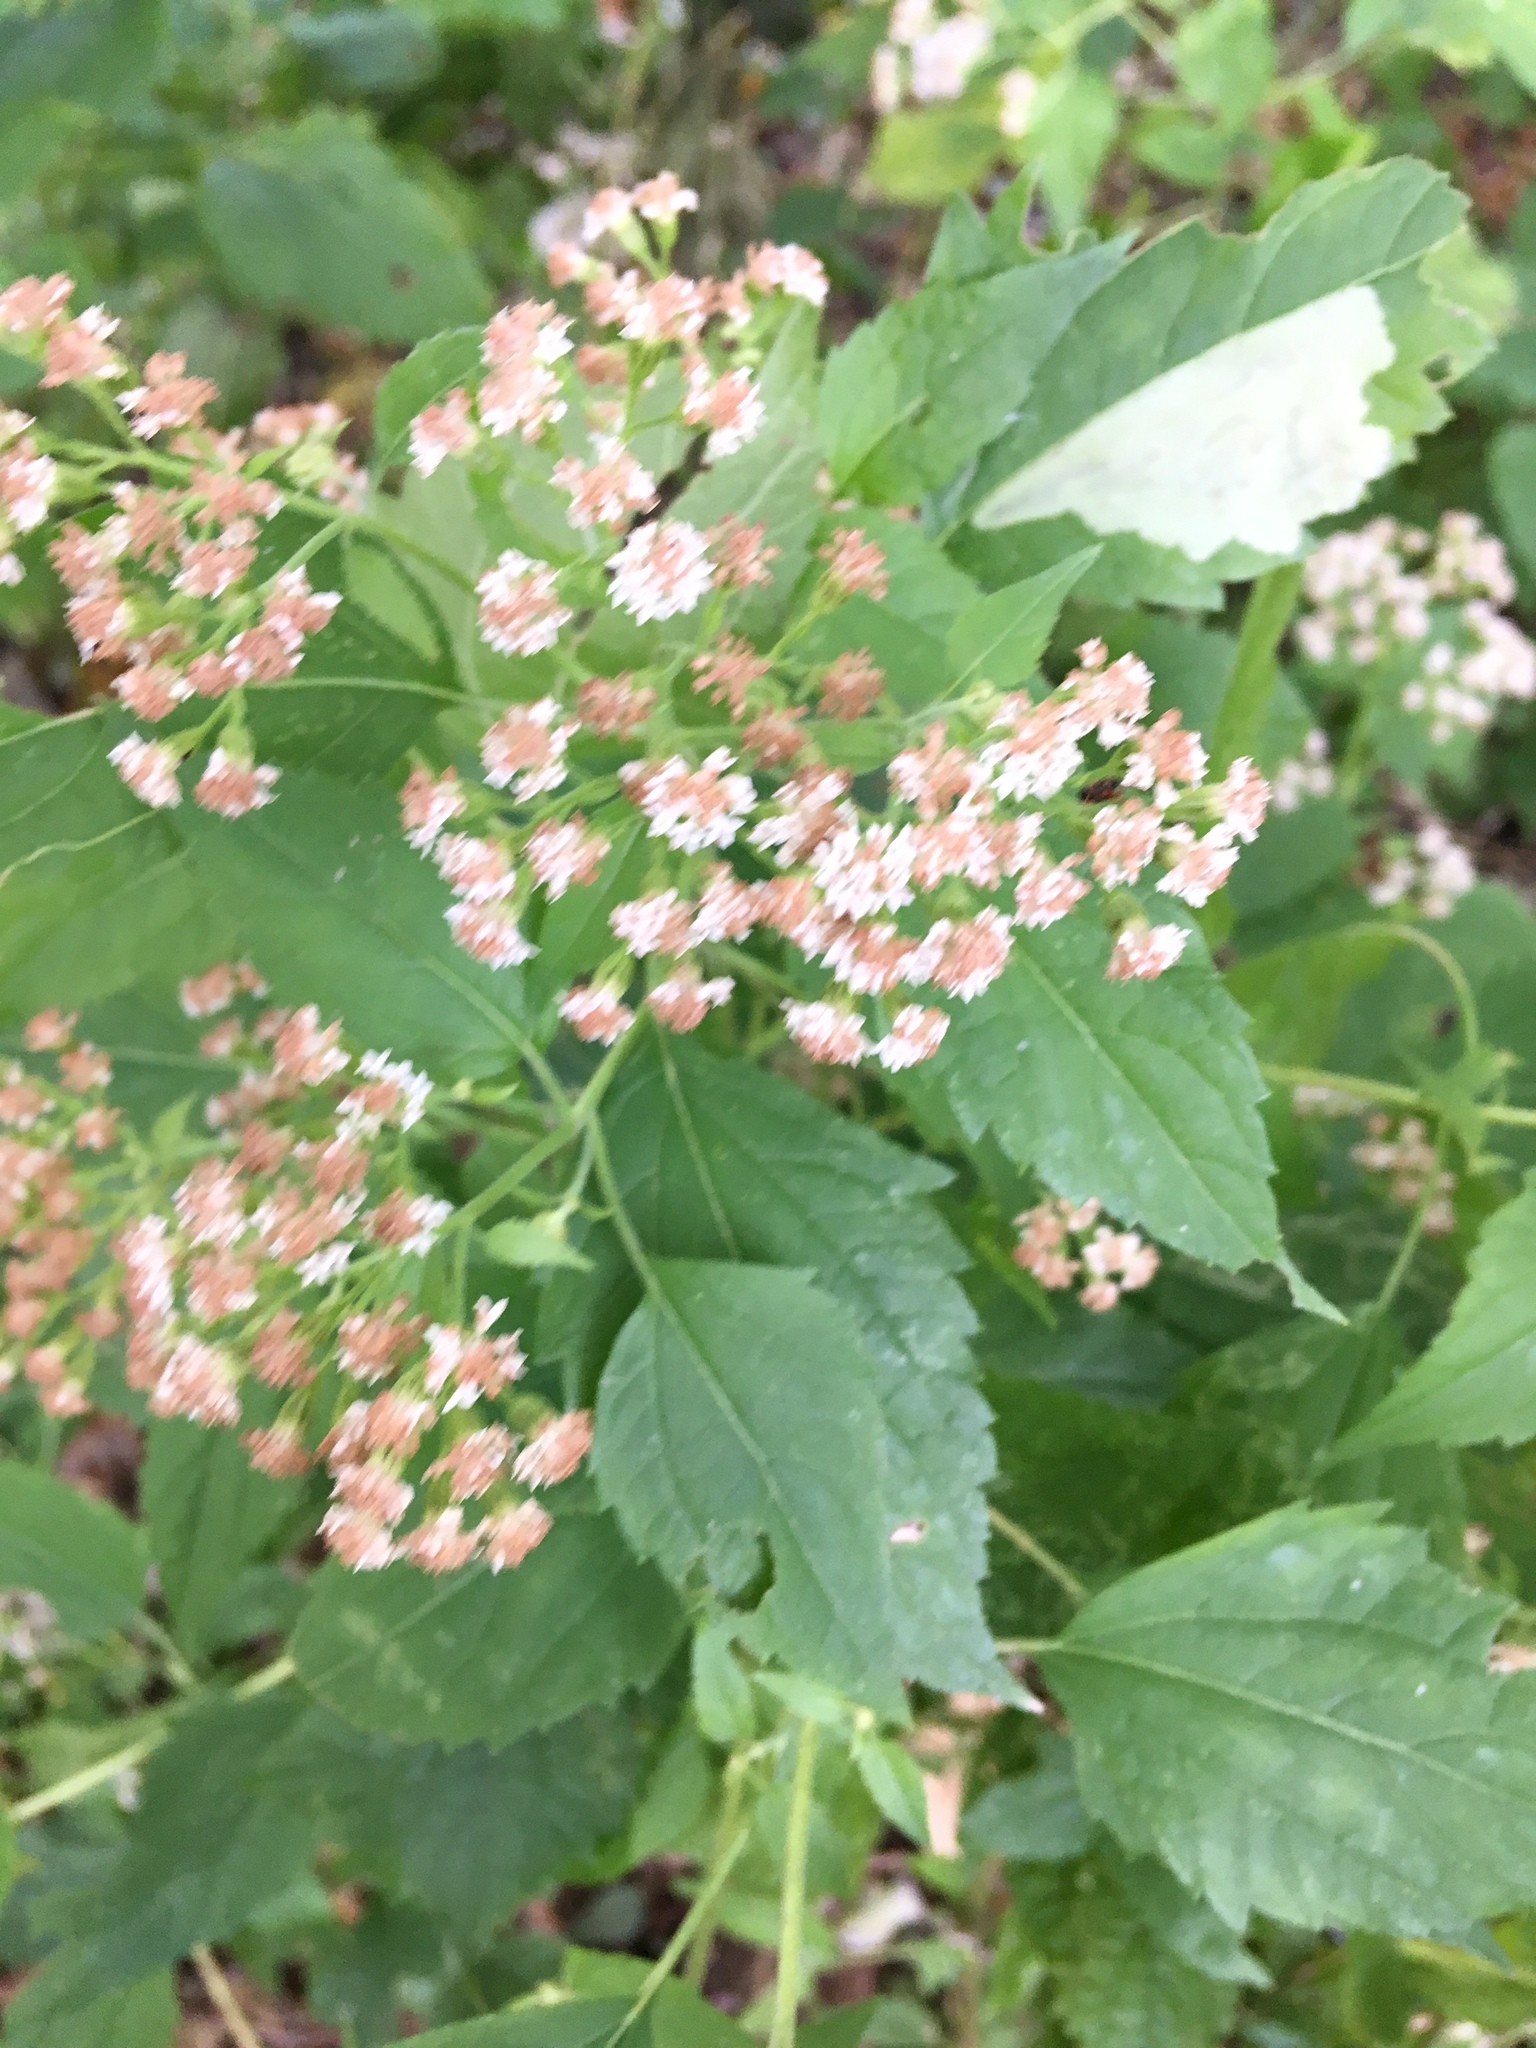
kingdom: Plantae
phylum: Tracheophyta
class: Magnoliopsida
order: Asterales
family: Asteraceae
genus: Ageratina
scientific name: Ageratina altissima
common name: White snakeroot
